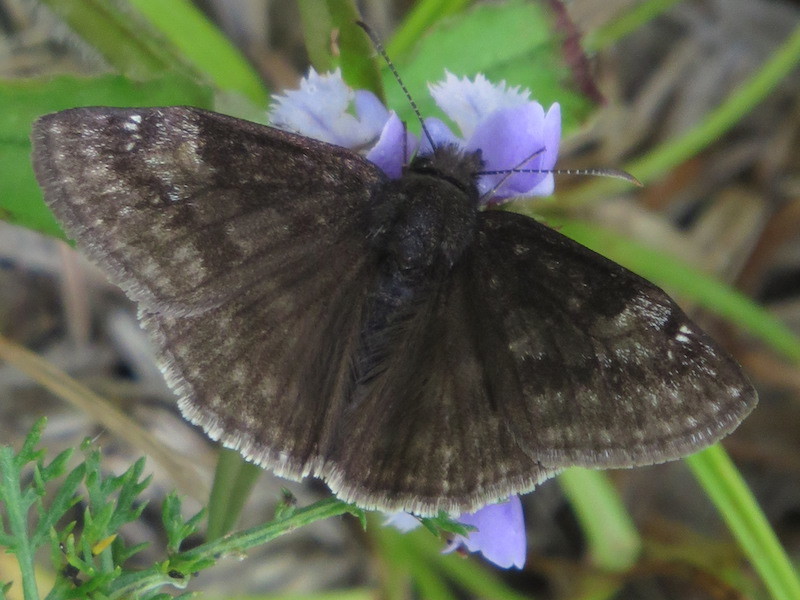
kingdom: Animalia
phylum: Arthropoda
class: Insecta
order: Lepidoptera
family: Hesperiidae
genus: Erynnis
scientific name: Erynnis baptisiae
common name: Wild indigo duskywing
